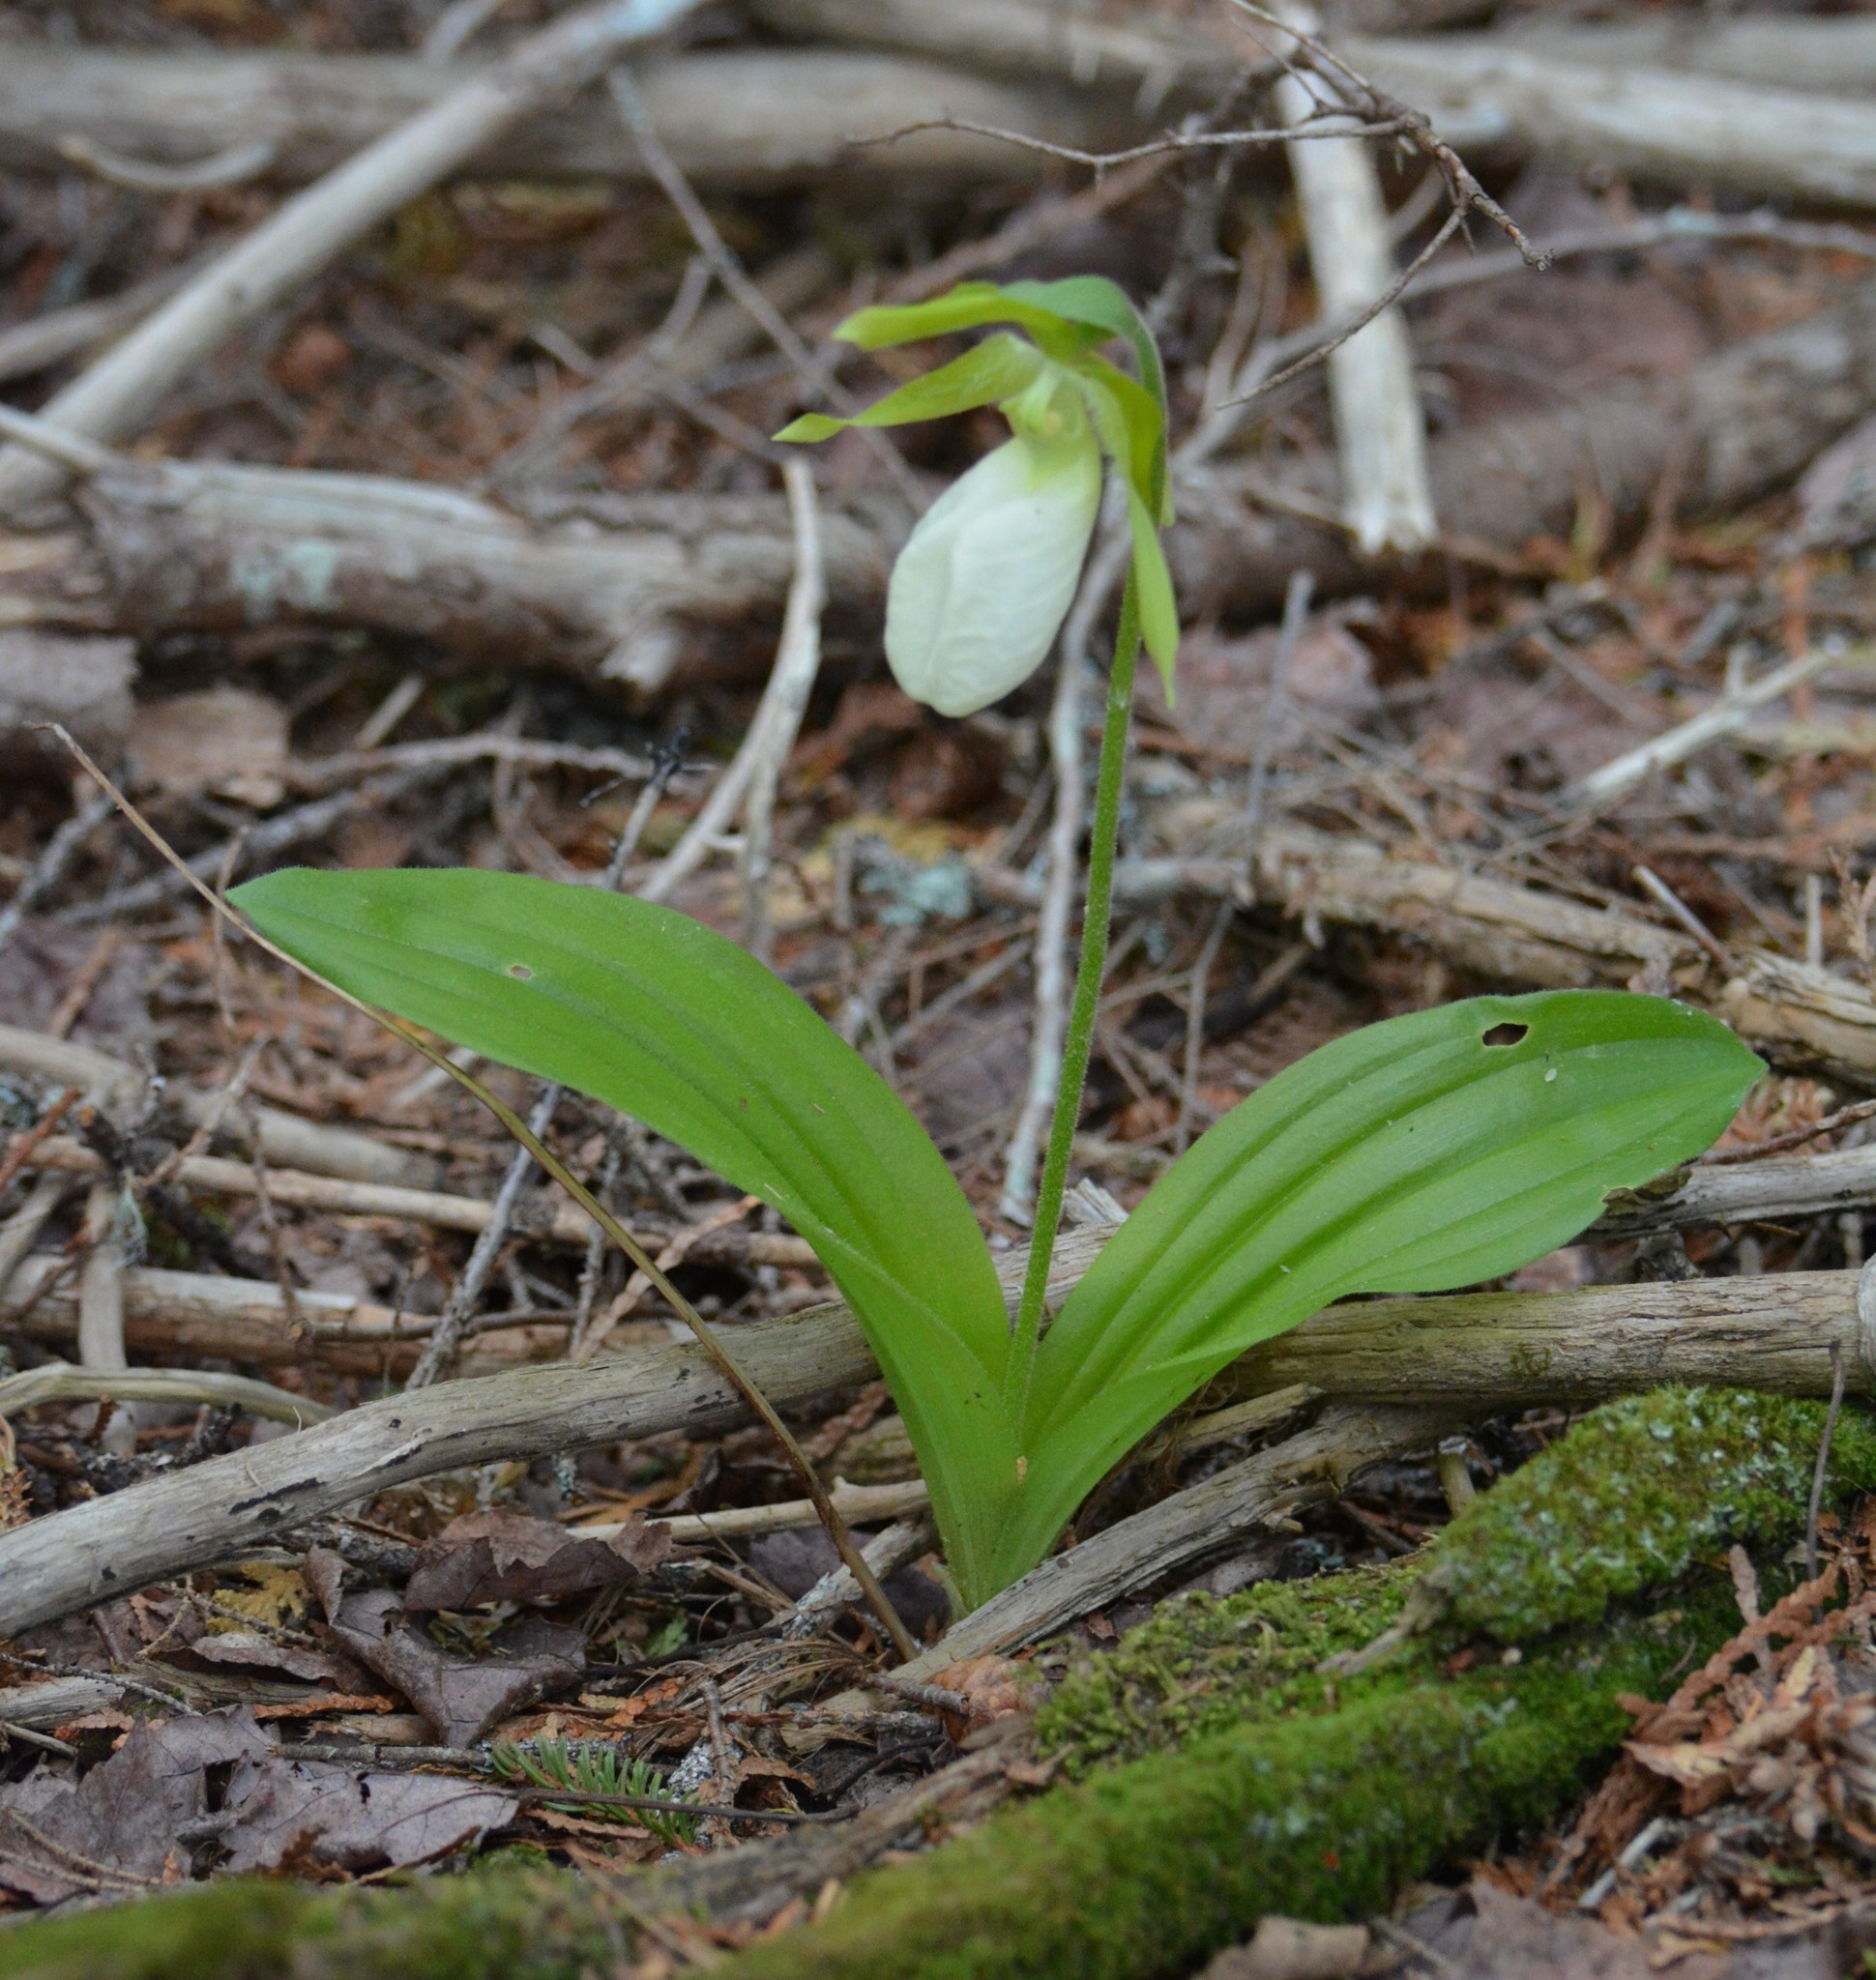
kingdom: Plantae
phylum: Tracheophyta
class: Liliopsida
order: Asparagales
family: Orchidaceae
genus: Cypripedium
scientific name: Cypripedium acaule
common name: Pink lady's-slipper
